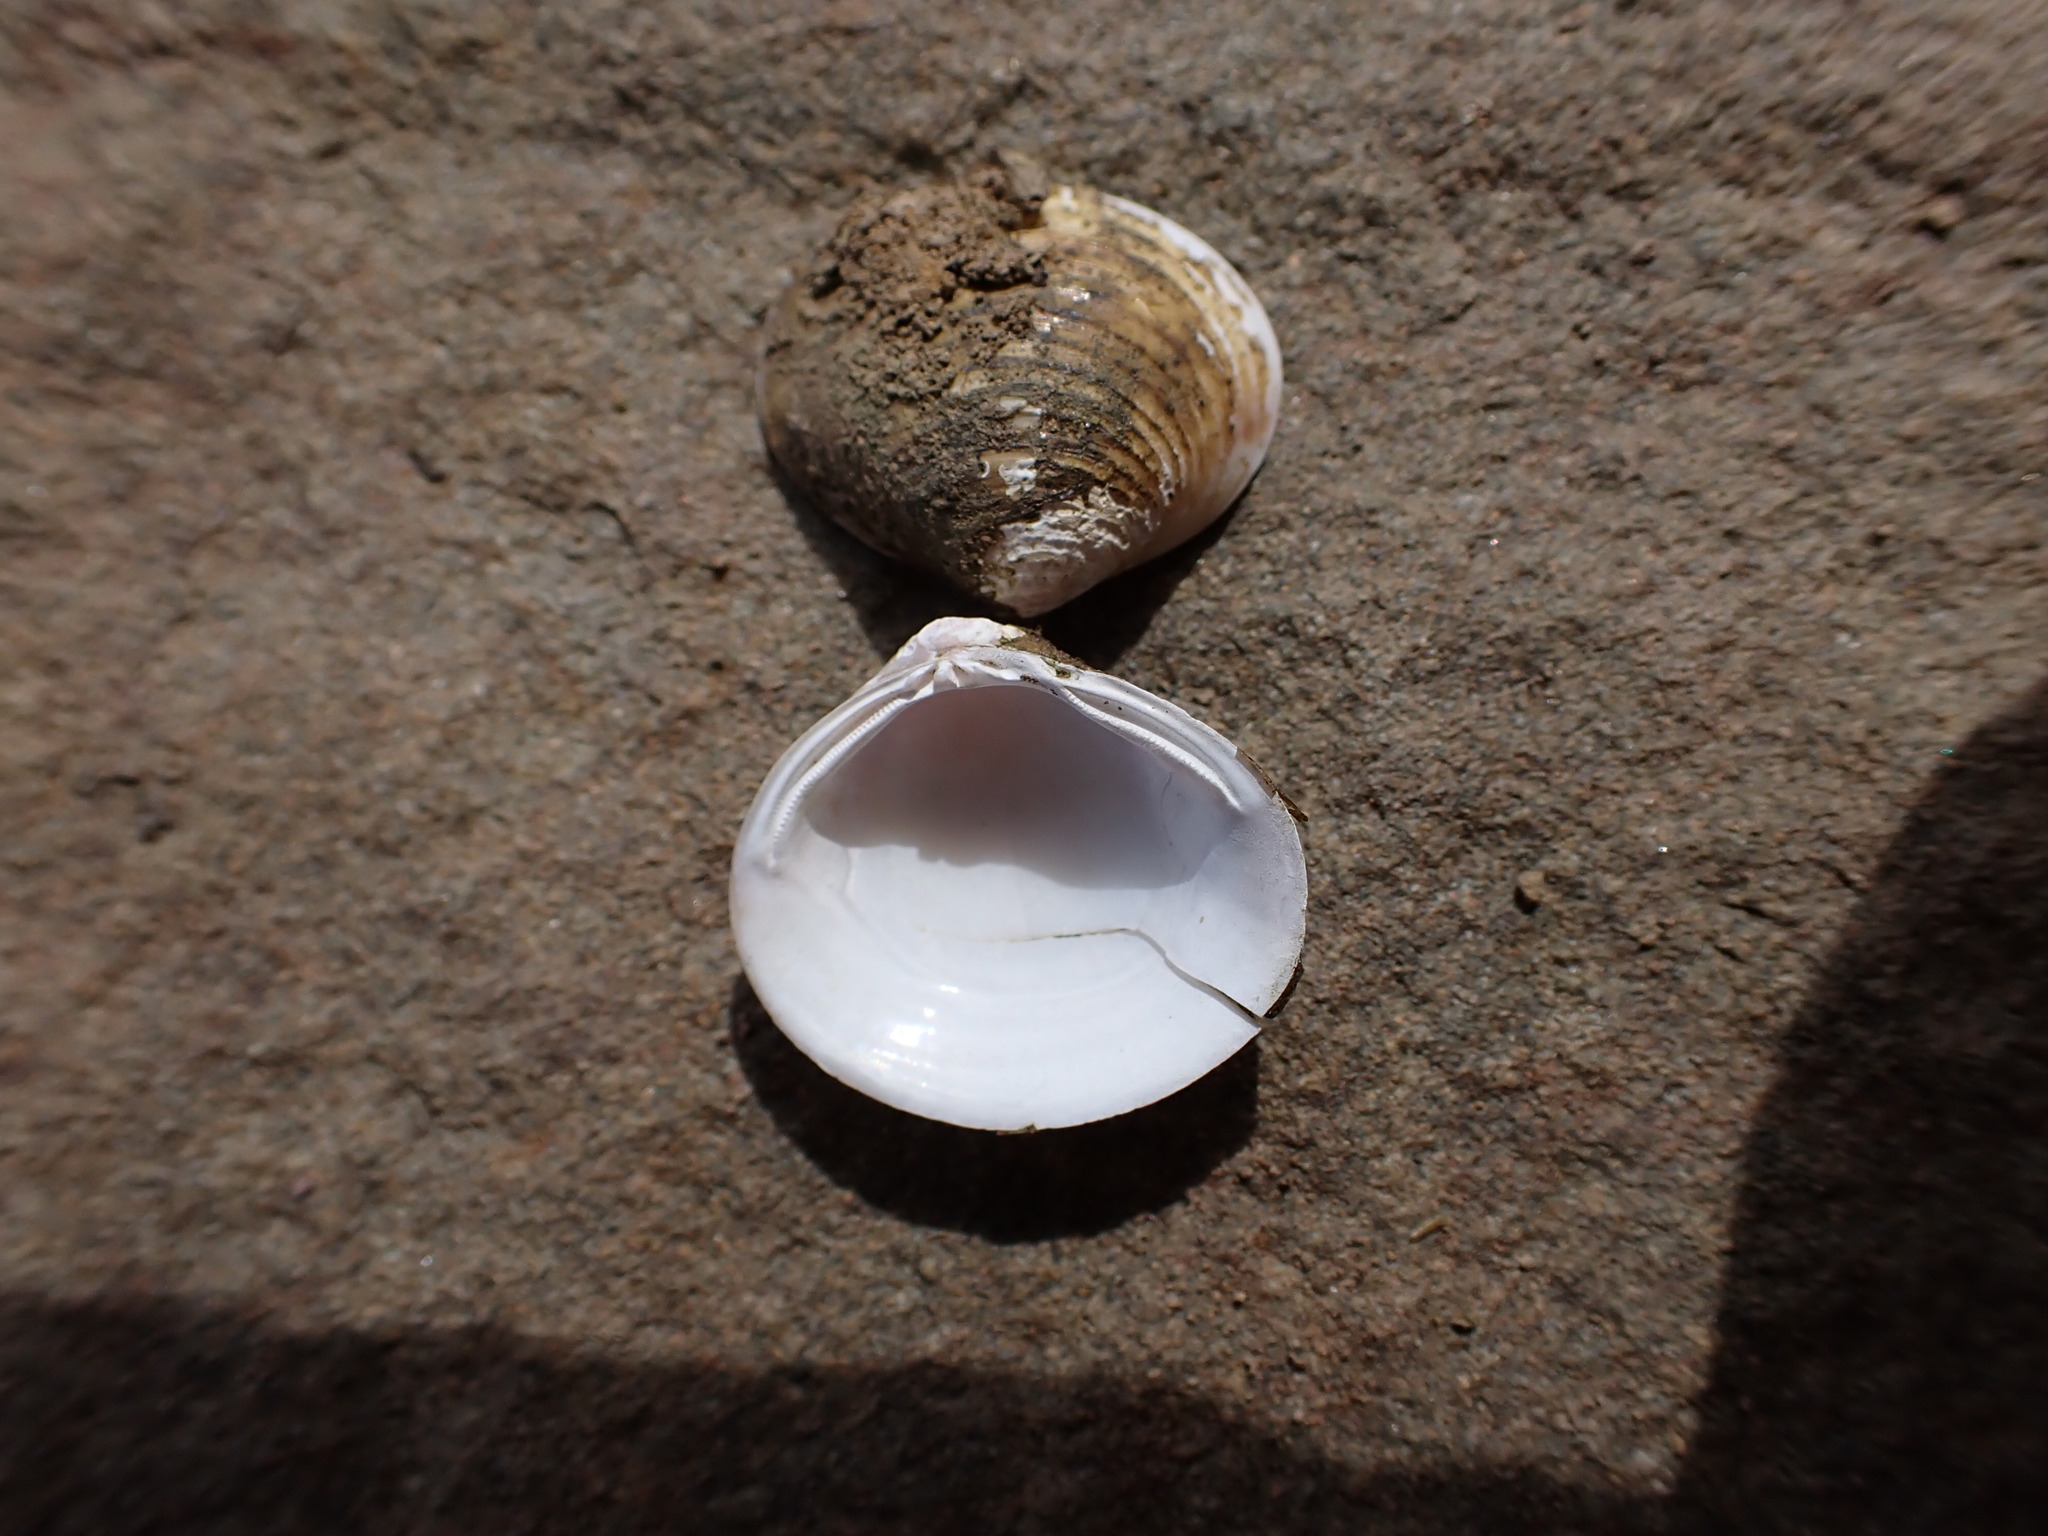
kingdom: Animalia
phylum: Mollusca
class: Bivalvia
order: Venerida
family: Cyrenidae
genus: Corbicula
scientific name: Corbicula fluminea
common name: Asian clam
